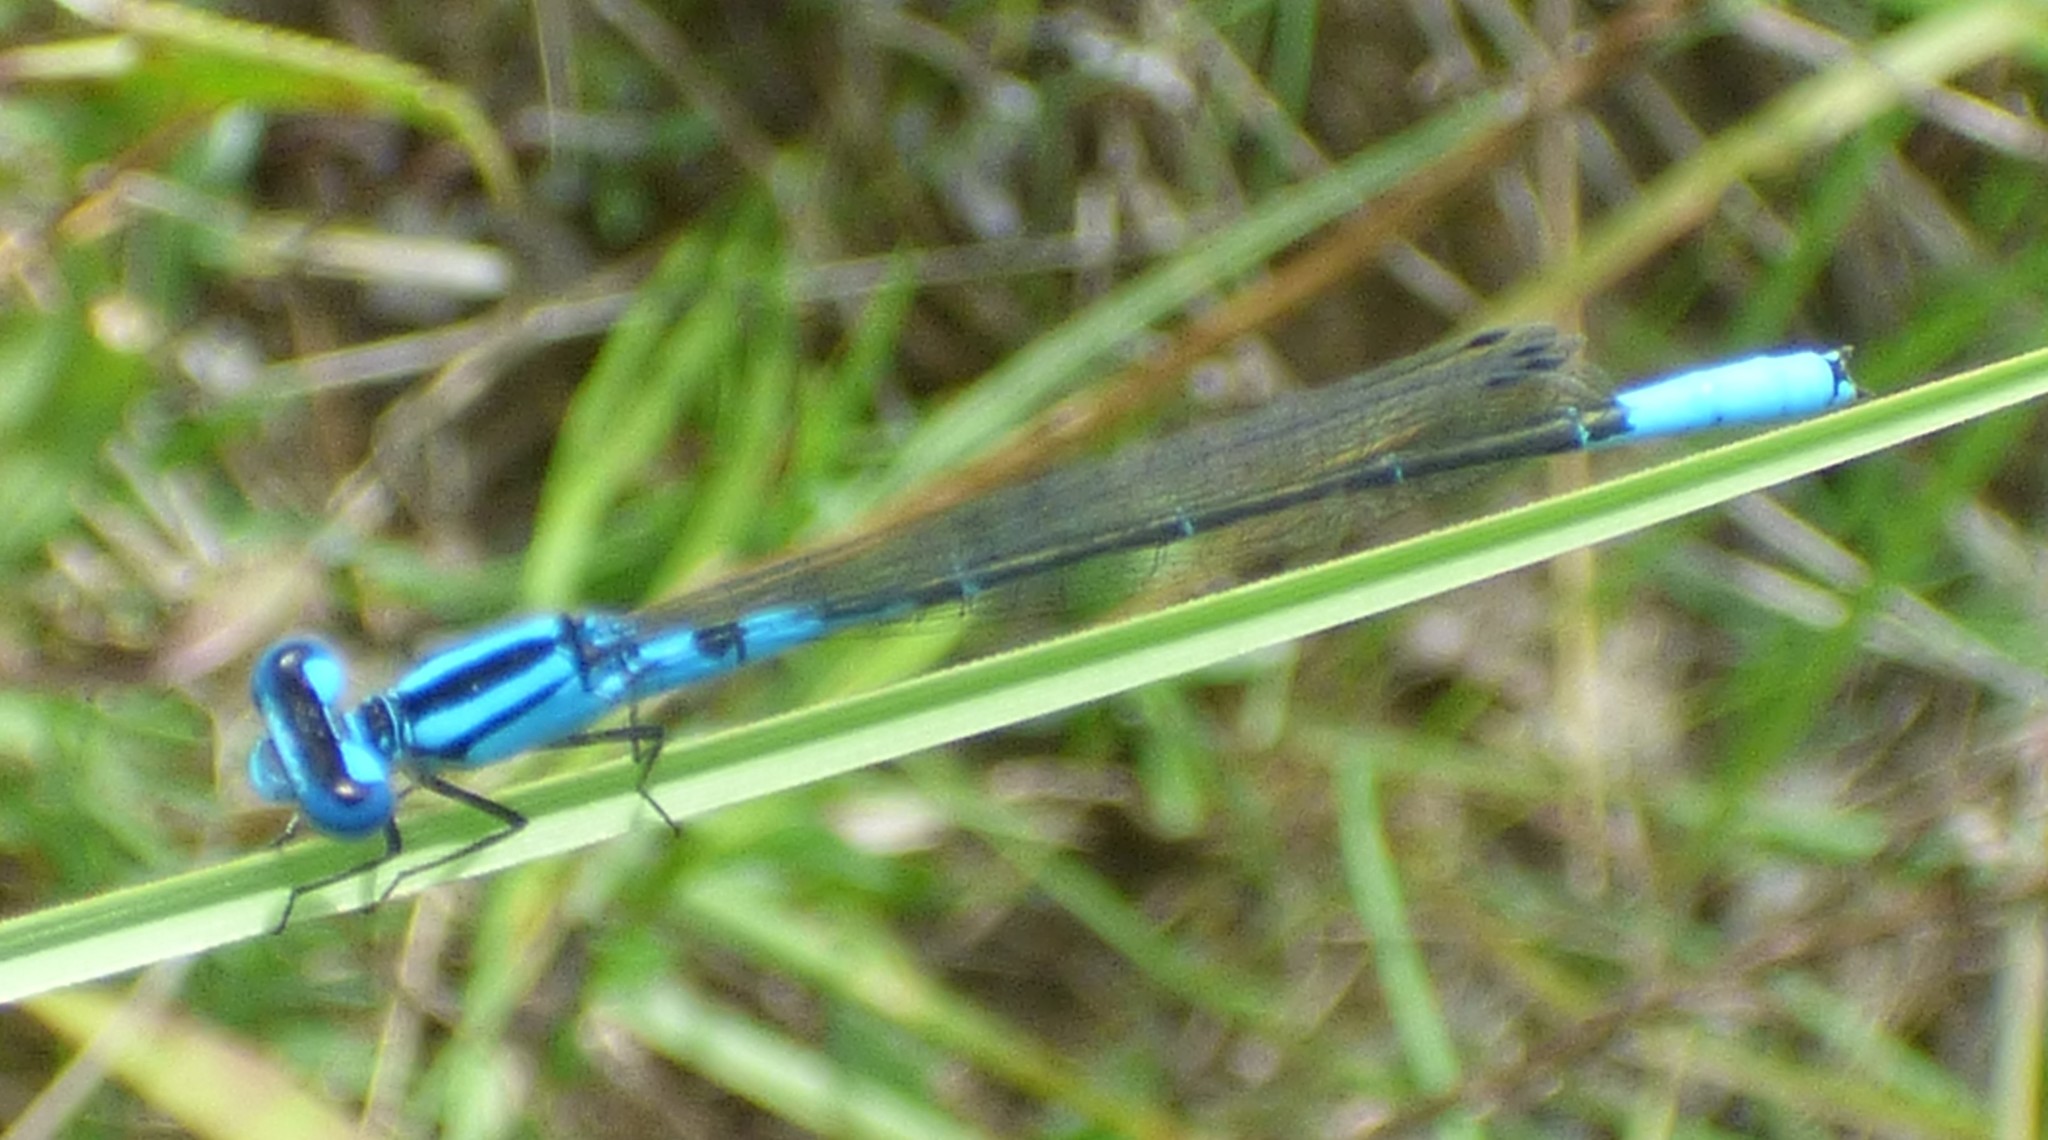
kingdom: Animalia
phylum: Arthropoda
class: Insecta
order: Odonata
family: Coenagrionidae
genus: Enallagma
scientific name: Enallagma aspersum
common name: Azure bluet
